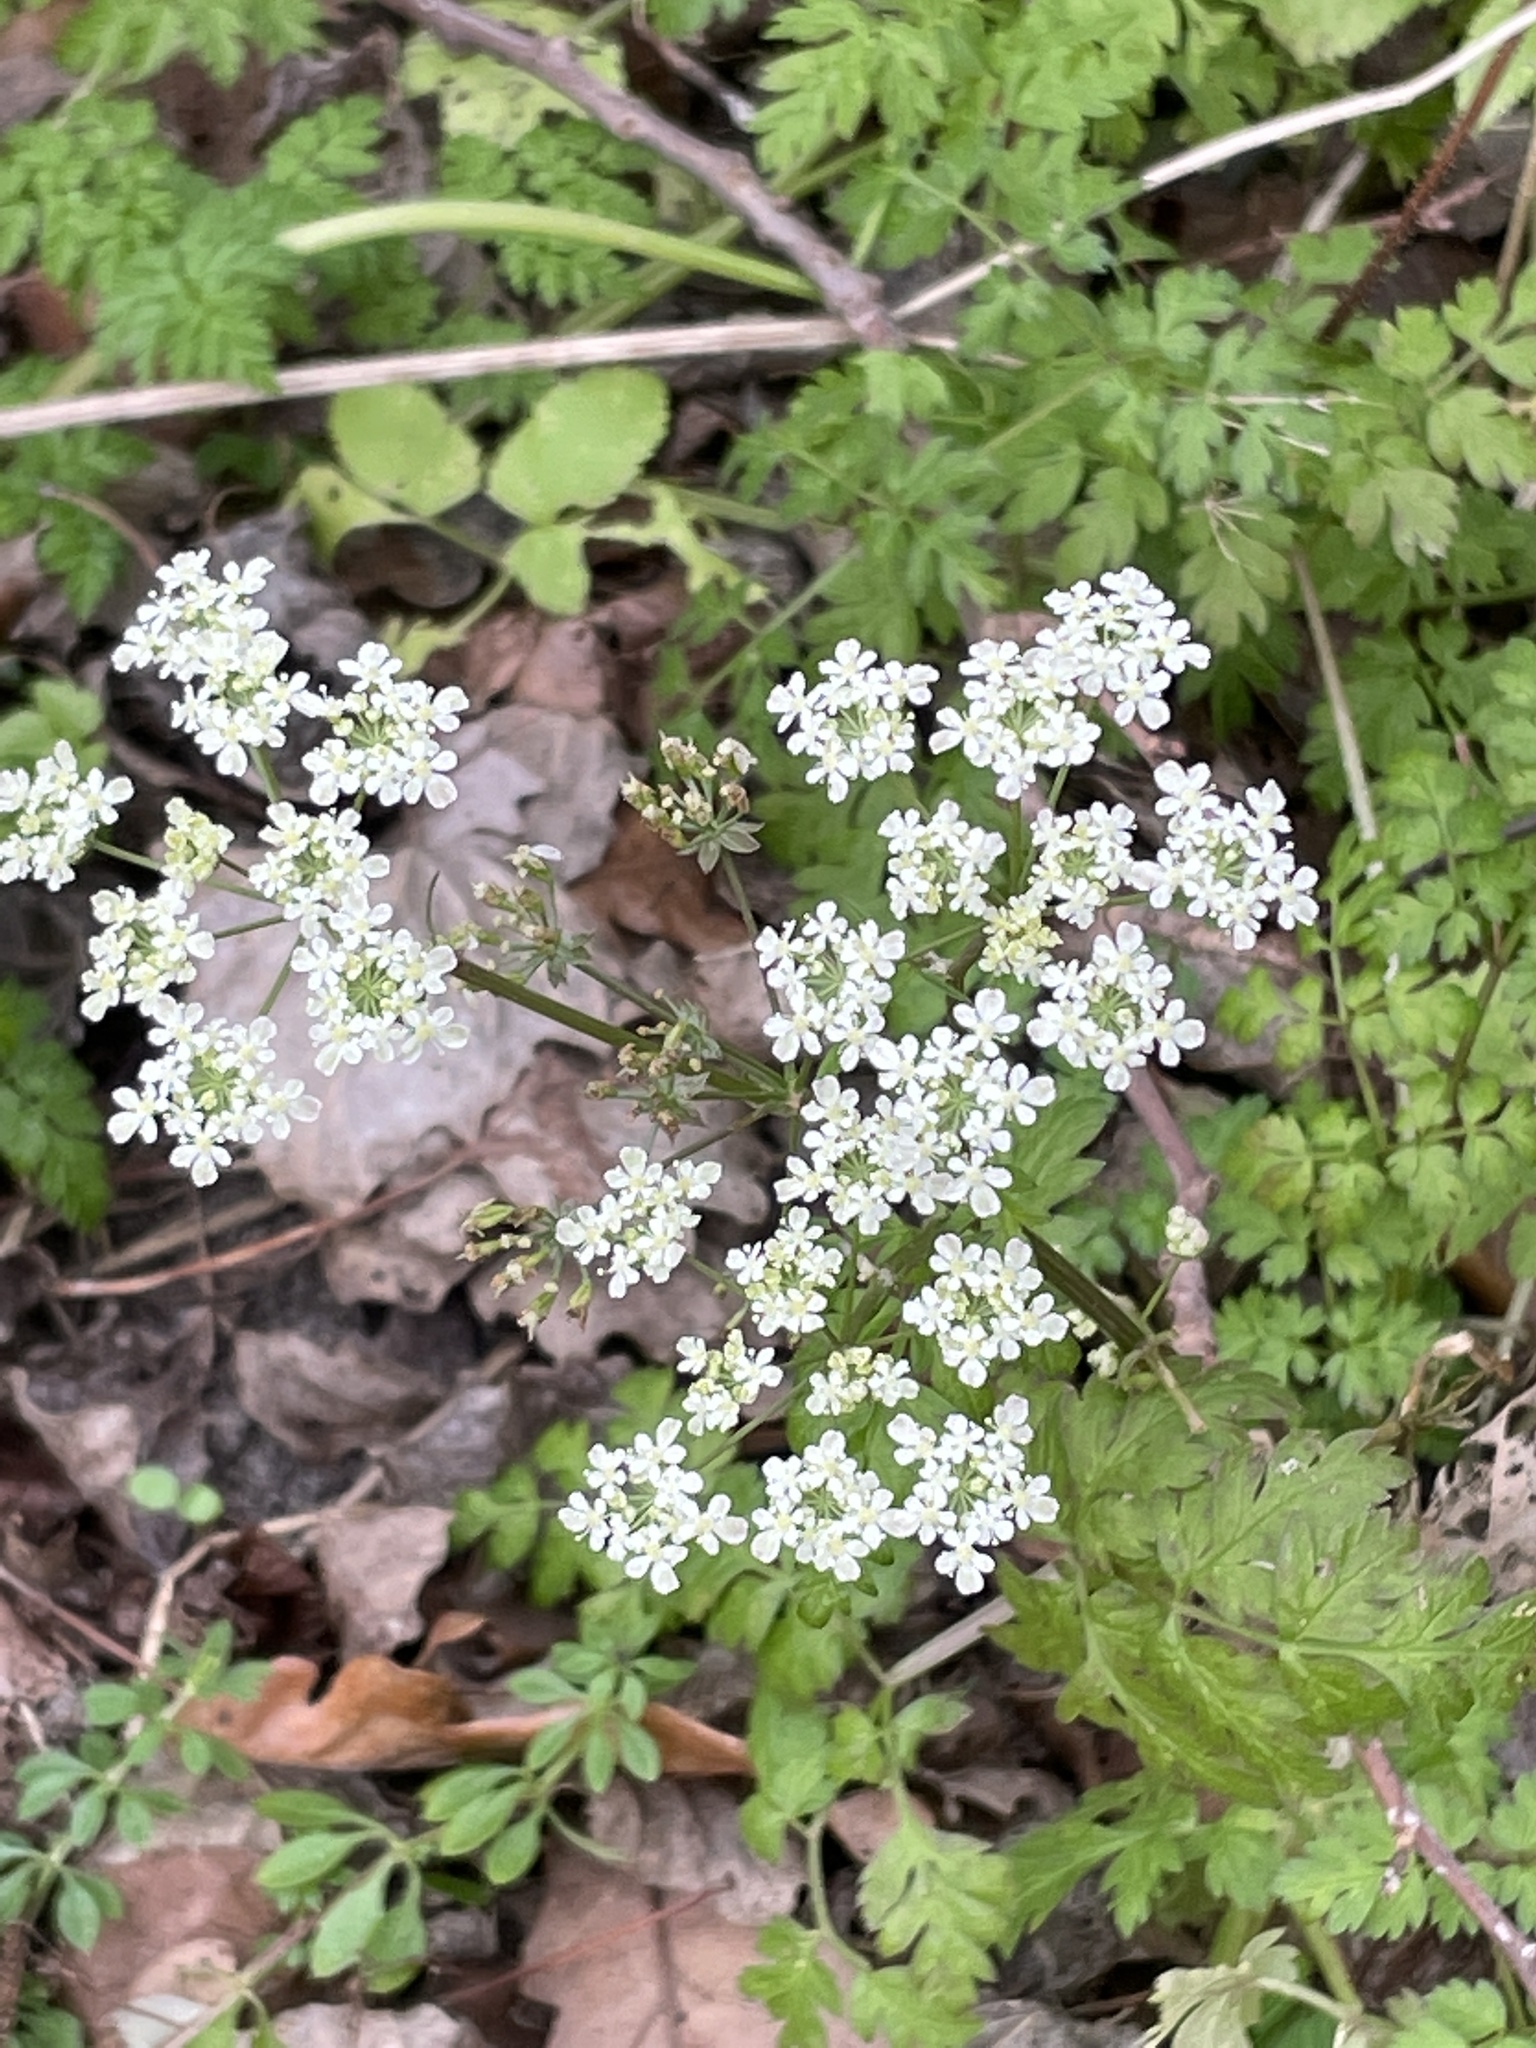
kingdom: Plantae
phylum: Tracheophyta
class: Magnoliopsida
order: Apiales
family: Apiaceae
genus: Anthriscus
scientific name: Anthriscus sylvestris
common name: Cow parsley
